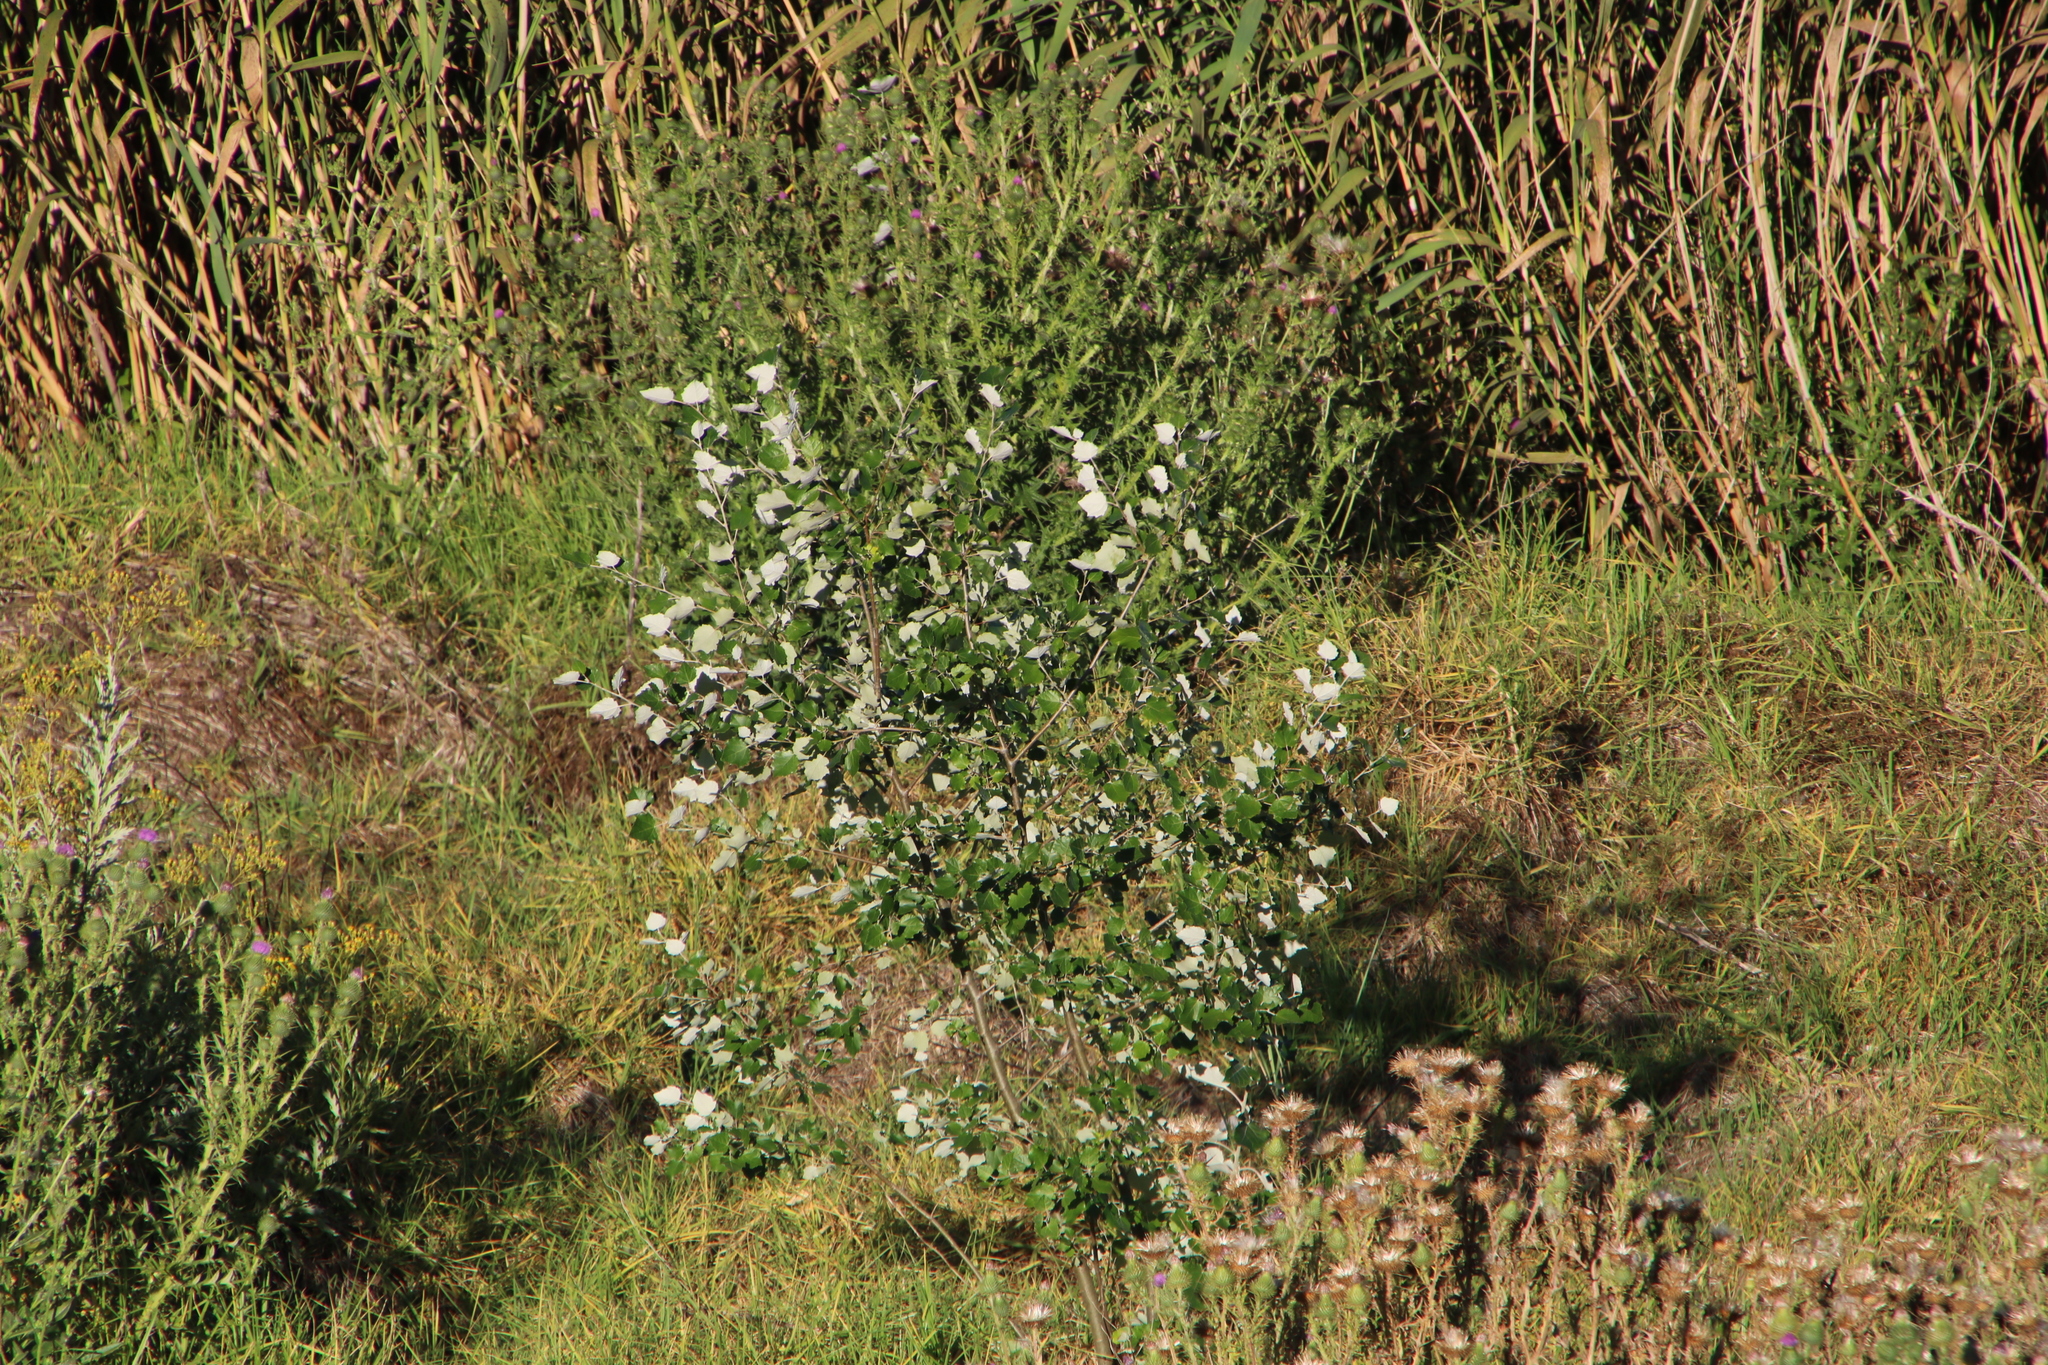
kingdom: Plantae
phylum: Tracheophyta
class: Magnoliopsida
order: Malpighiales
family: Salicaceae
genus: Populus
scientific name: Populus canescens
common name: Gray poplar
